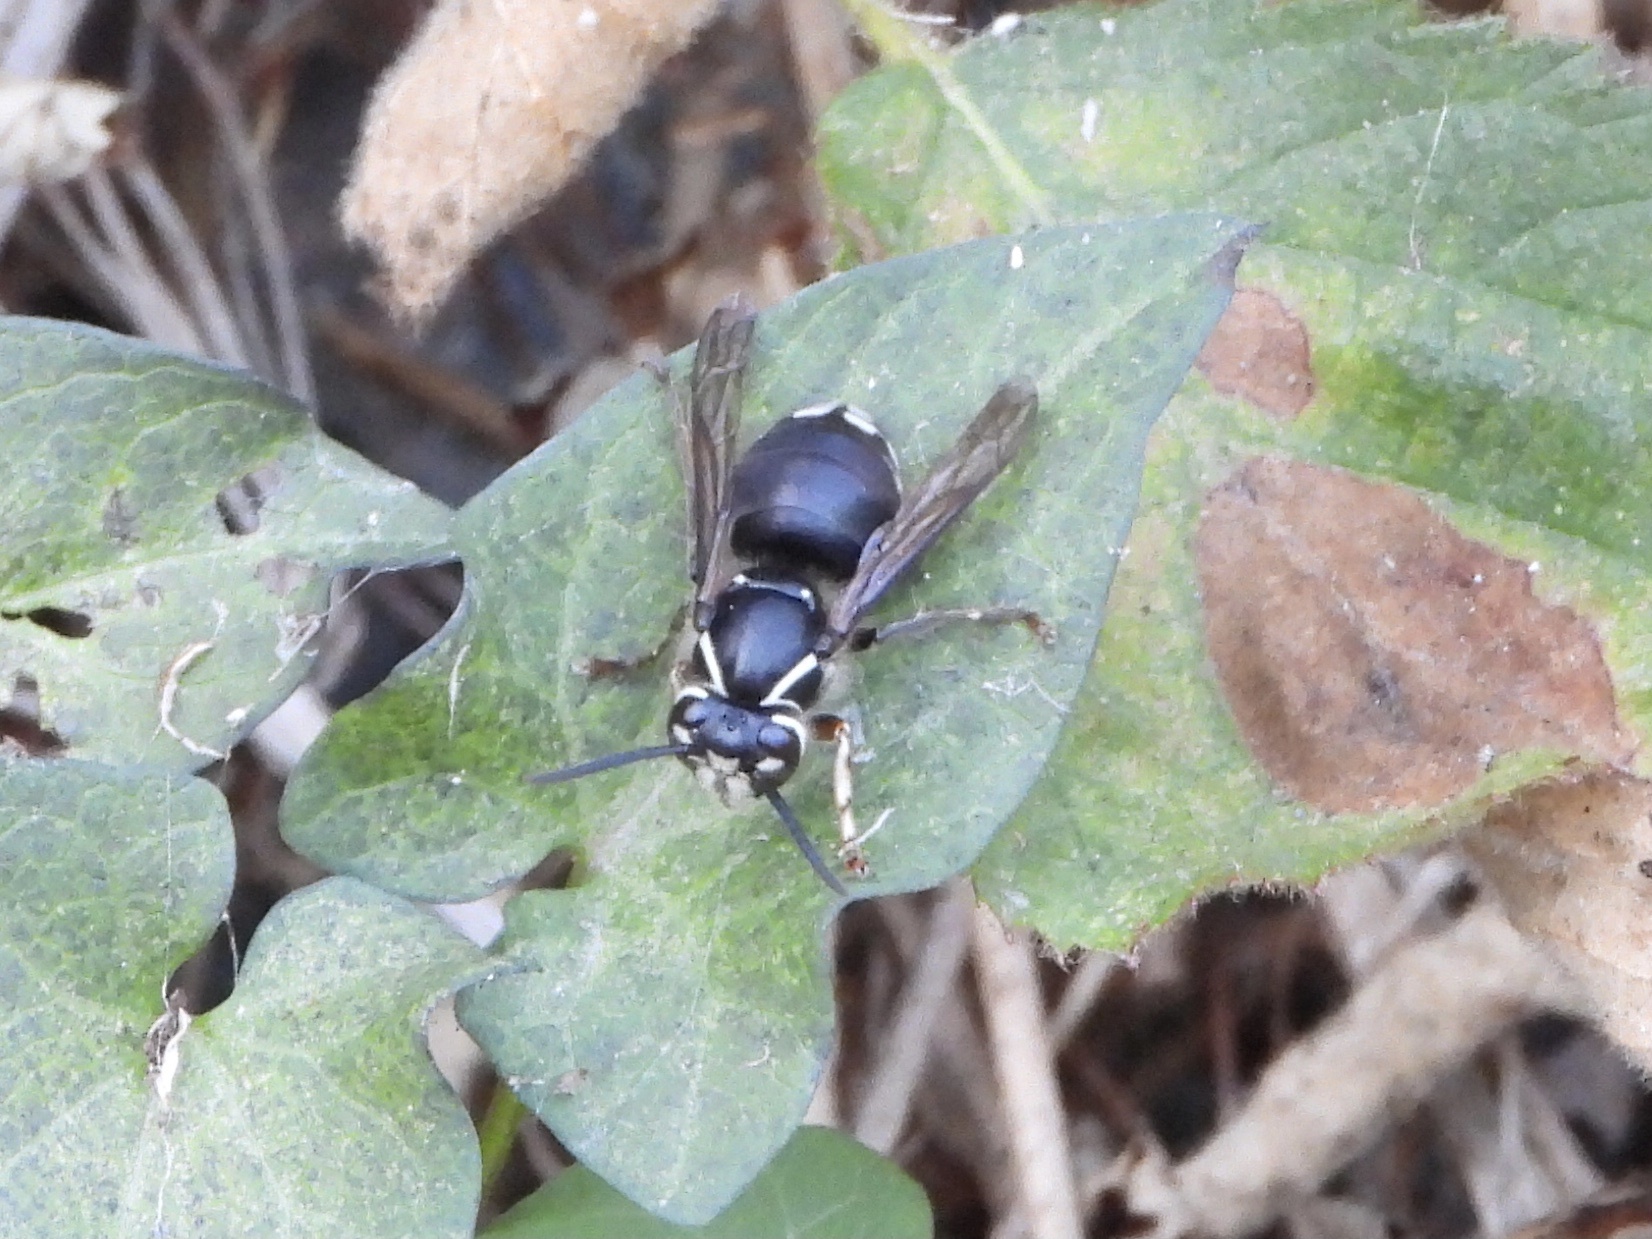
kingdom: Animalia
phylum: Arthropoda
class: Insecta
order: Hymenoptera
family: Vespidae
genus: Dolichovespula
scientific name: Dolichovespula maculata
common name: Bald-faced hornet
